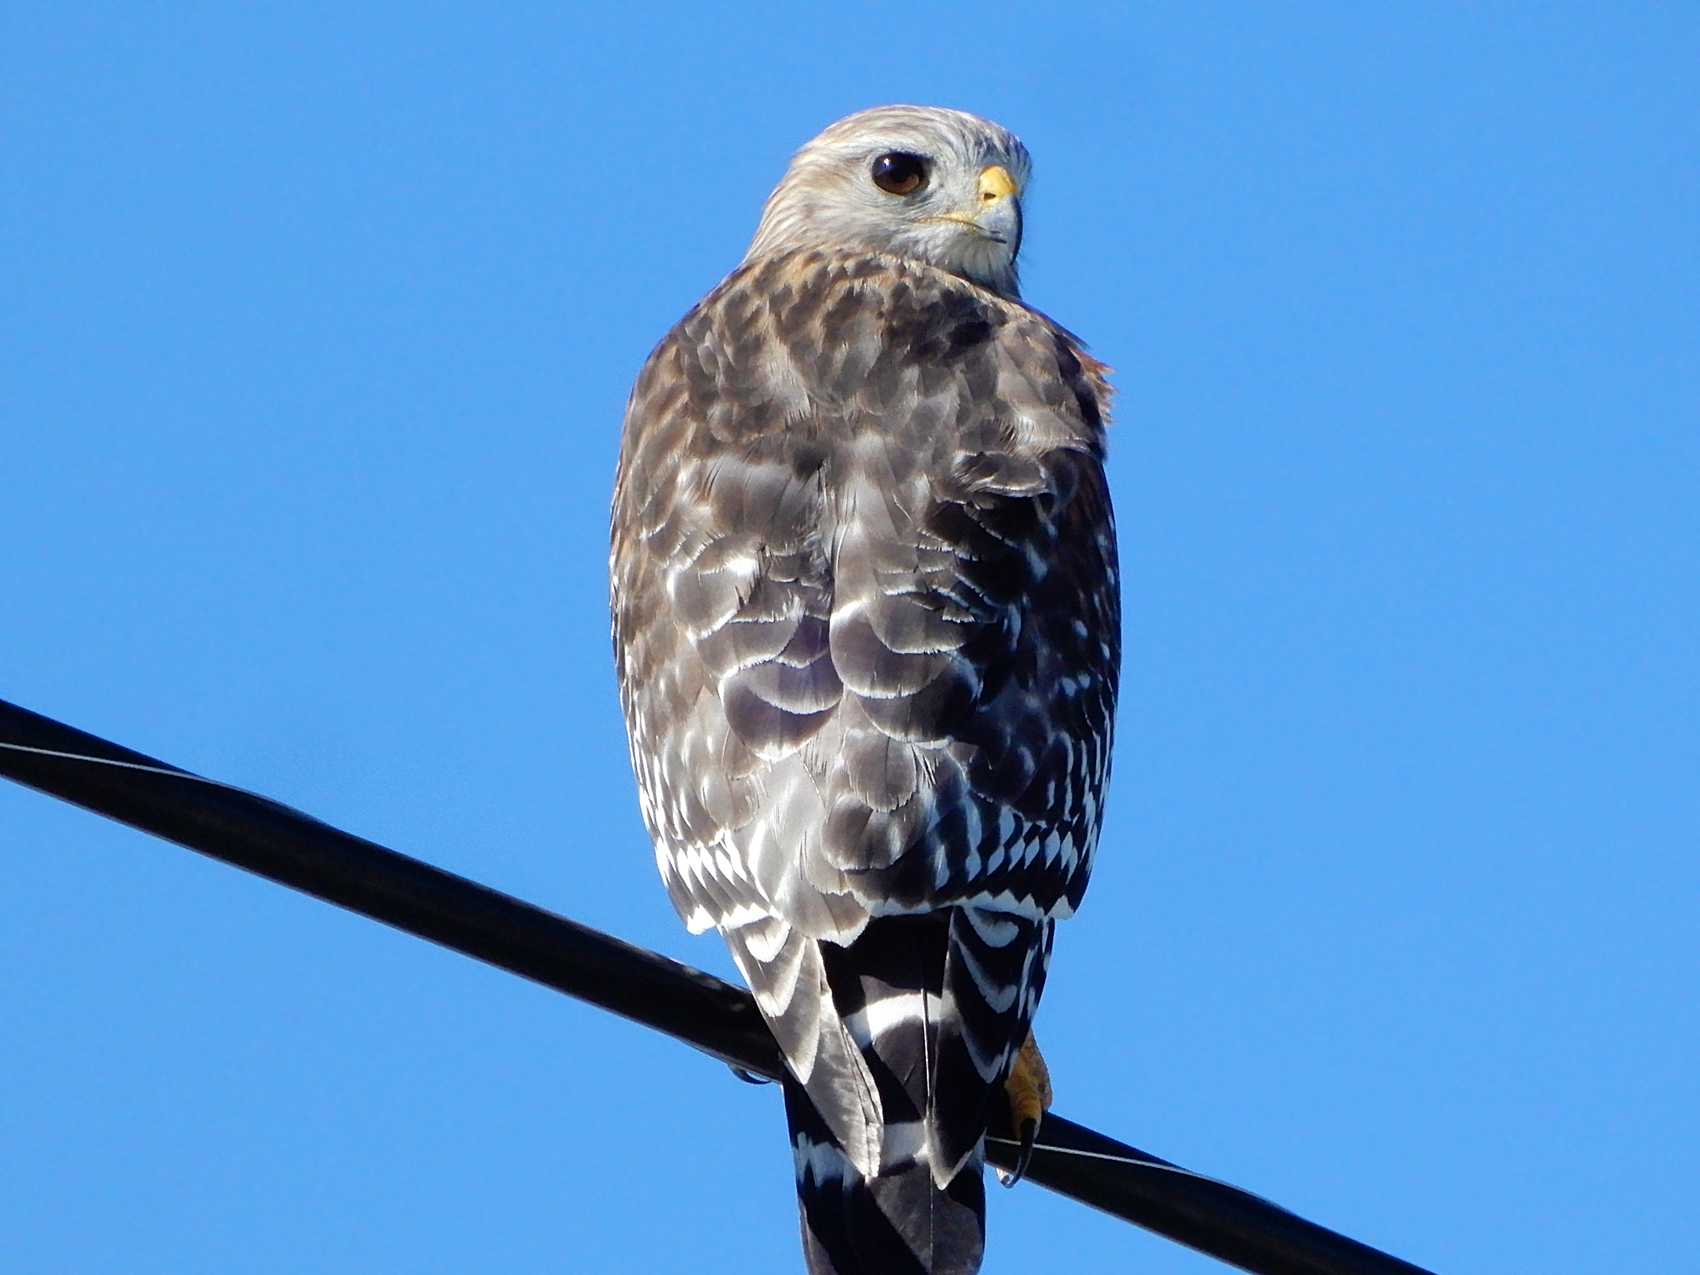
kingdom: Animalia
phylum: Chordata
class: Aves
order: Accipitriformes
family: Accipitridae
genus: Buteo
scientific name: Buteo lineatus
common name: Red-shouldered hawk
